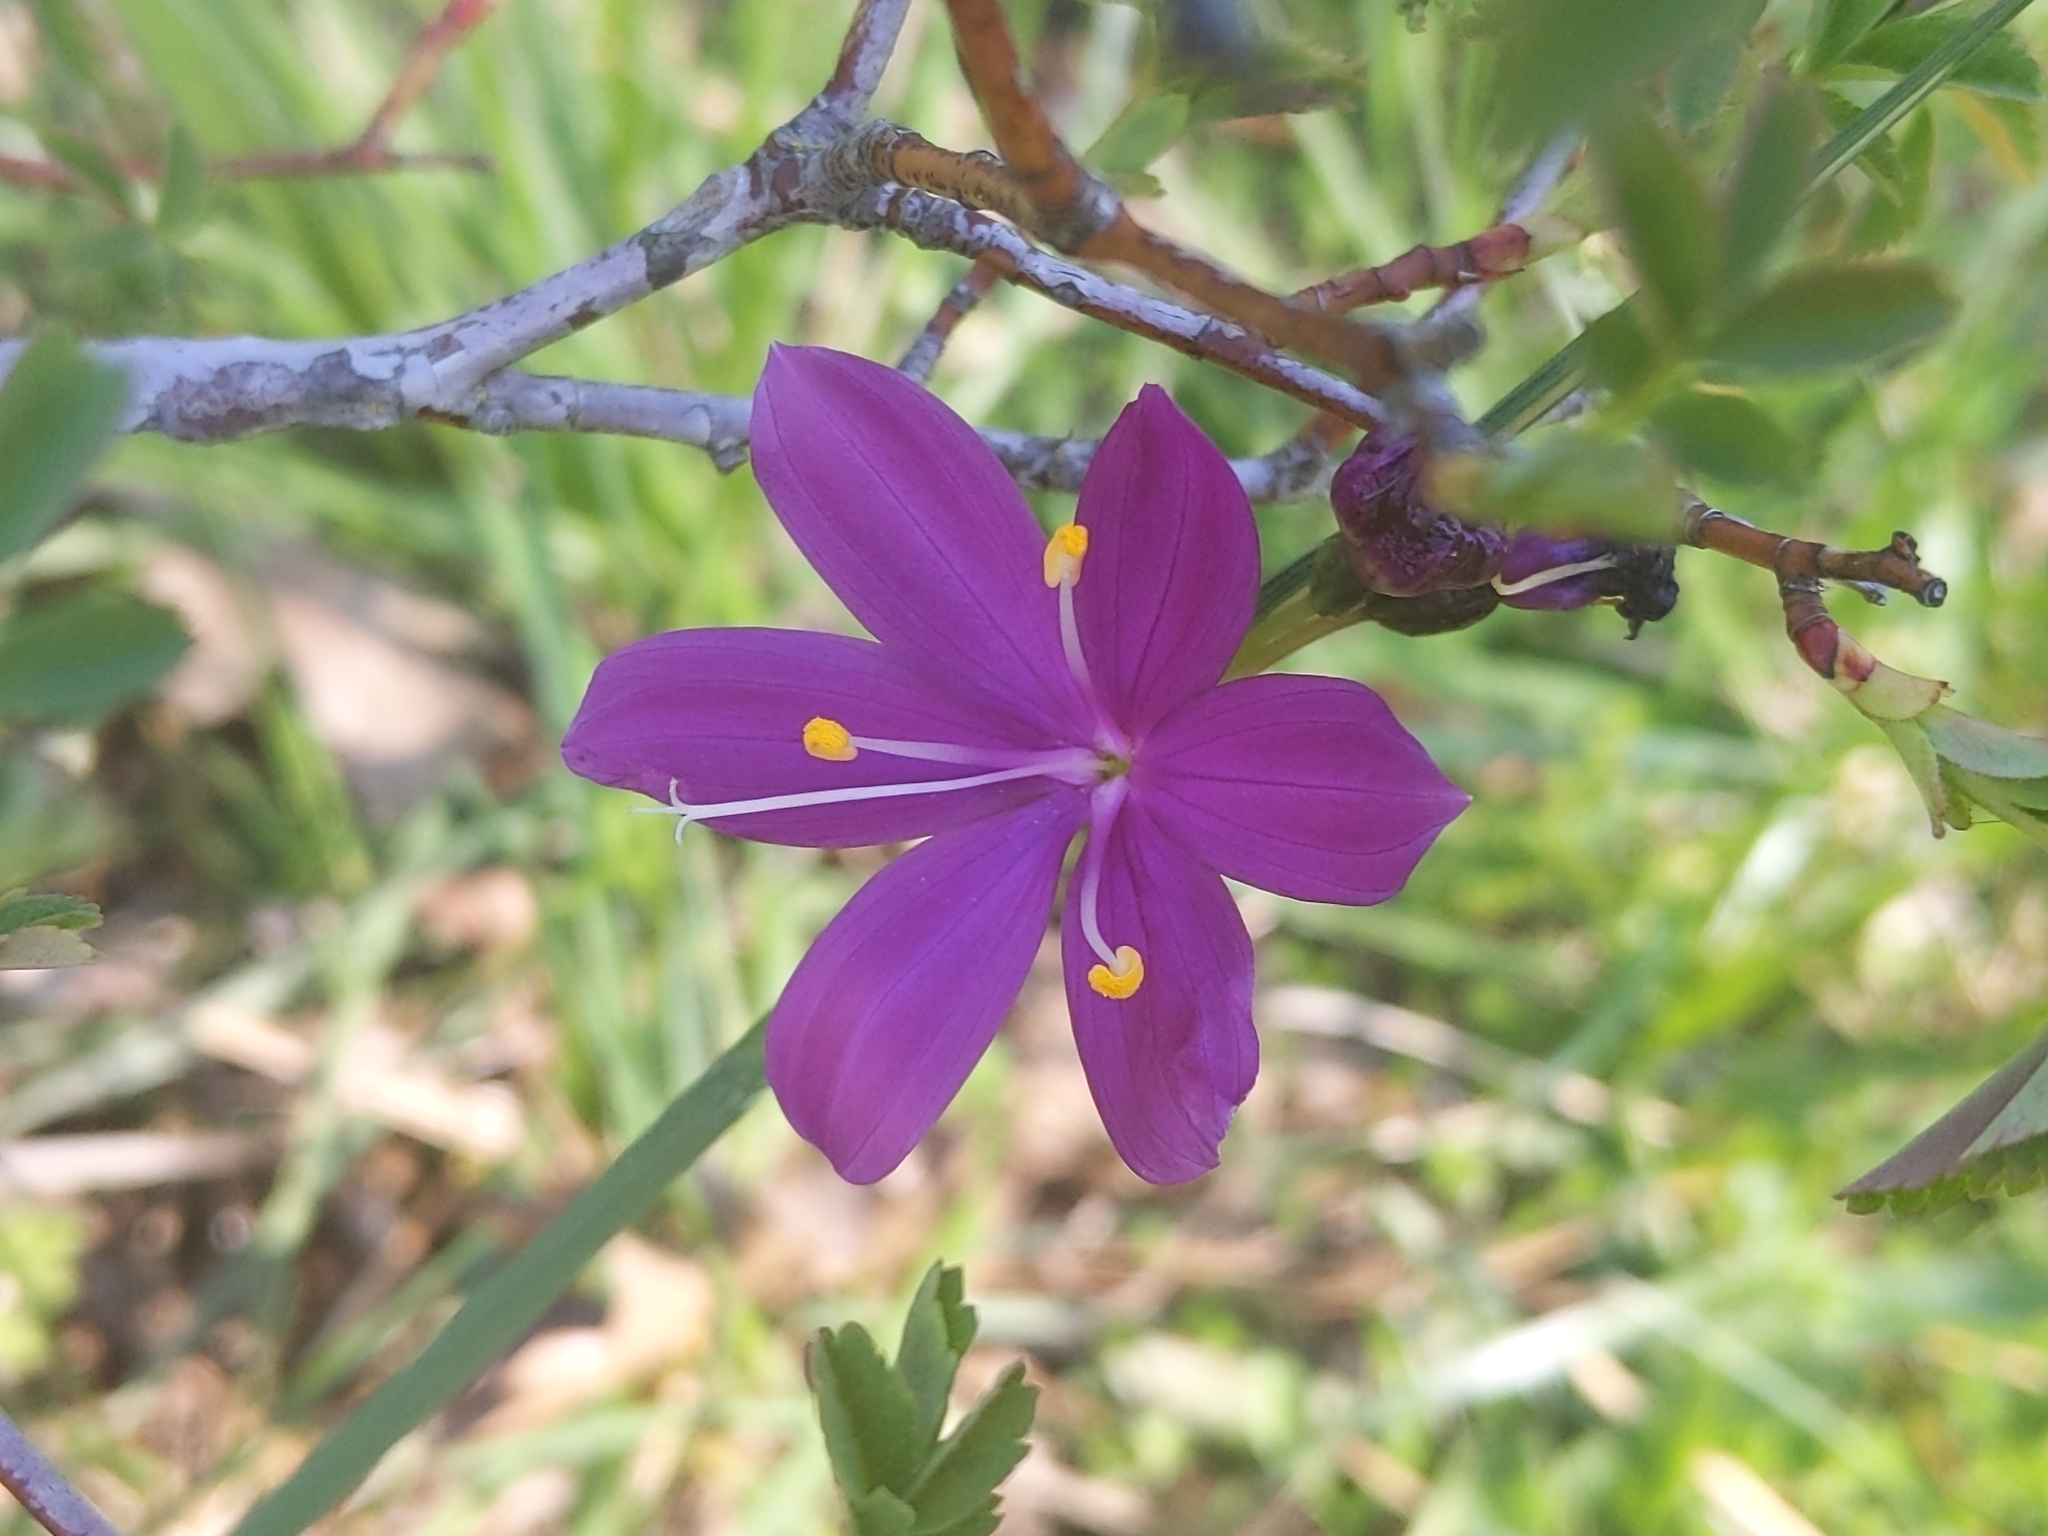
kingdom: Plantae
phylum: Tracheophyta
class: Liliopsida
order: Asparagales
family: Iridaceae
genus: Olsynium
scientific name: Olsynium douglasii
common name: Douglas' grasswidow
